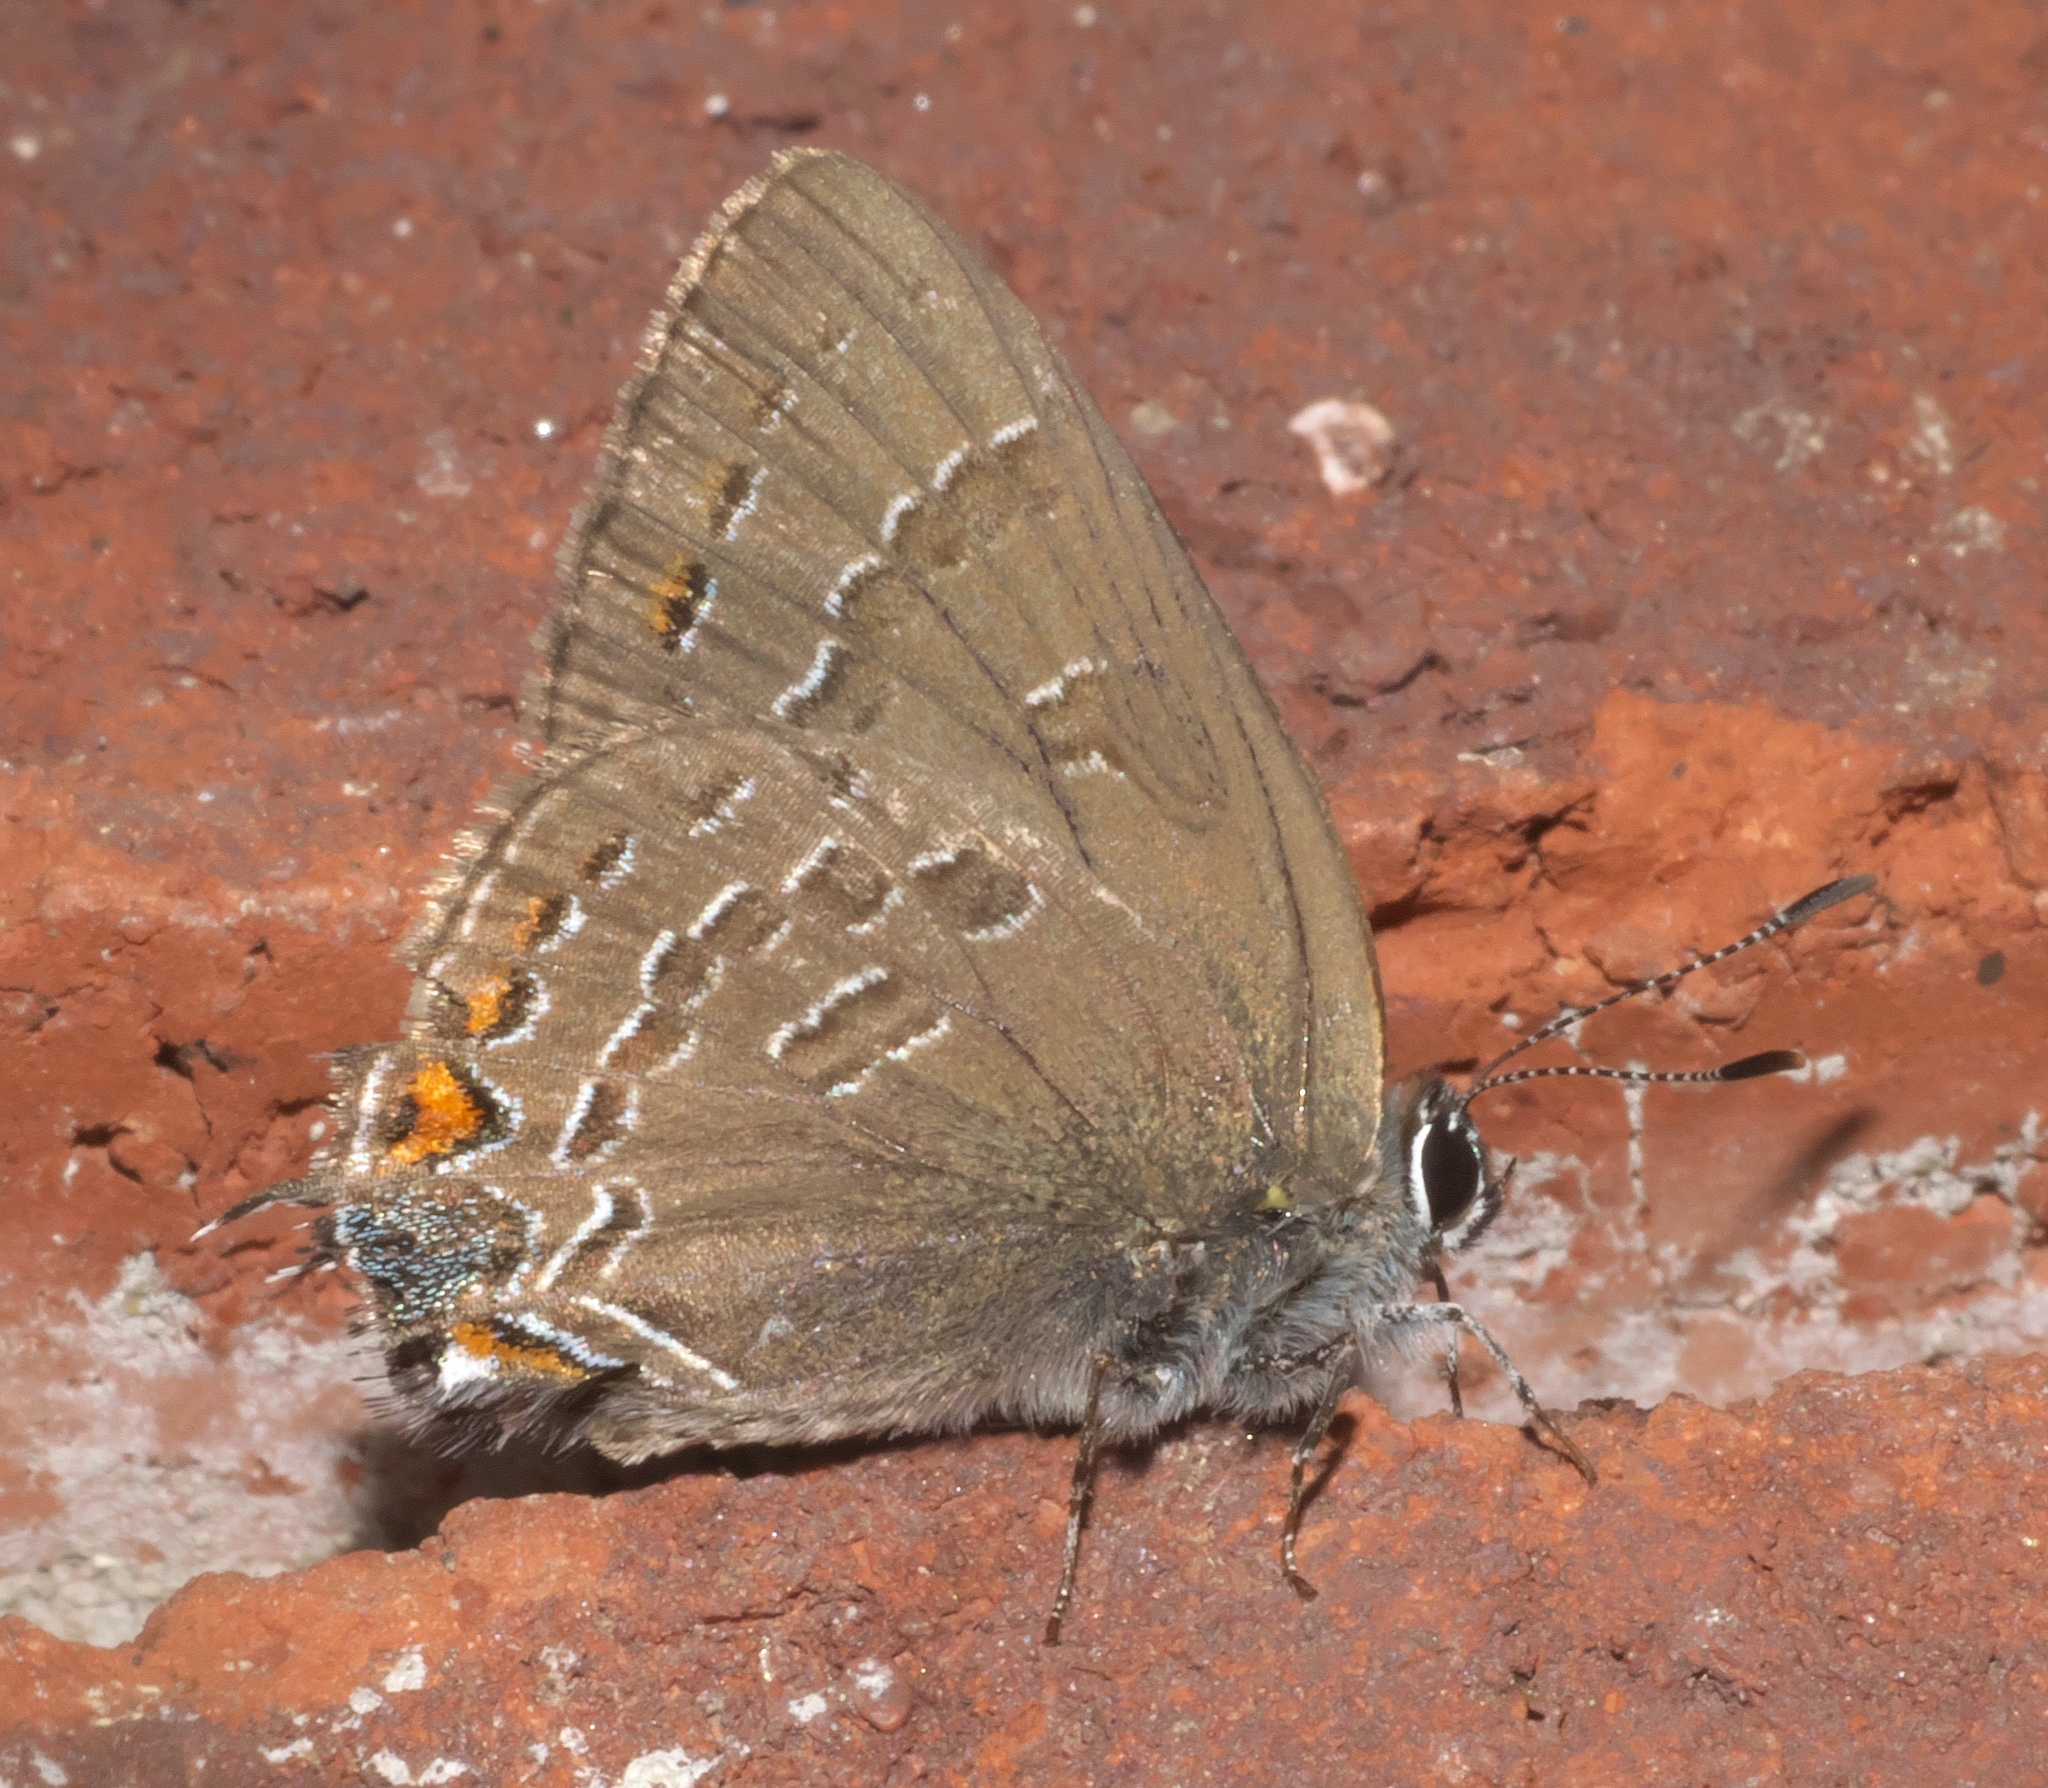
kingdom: Animalia
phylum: Arthropoda
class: Insecta
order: Lepidoptera
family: Lycaenidae
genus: Satyrium
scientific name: Satyrium calanus
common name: Banded hairstreak
